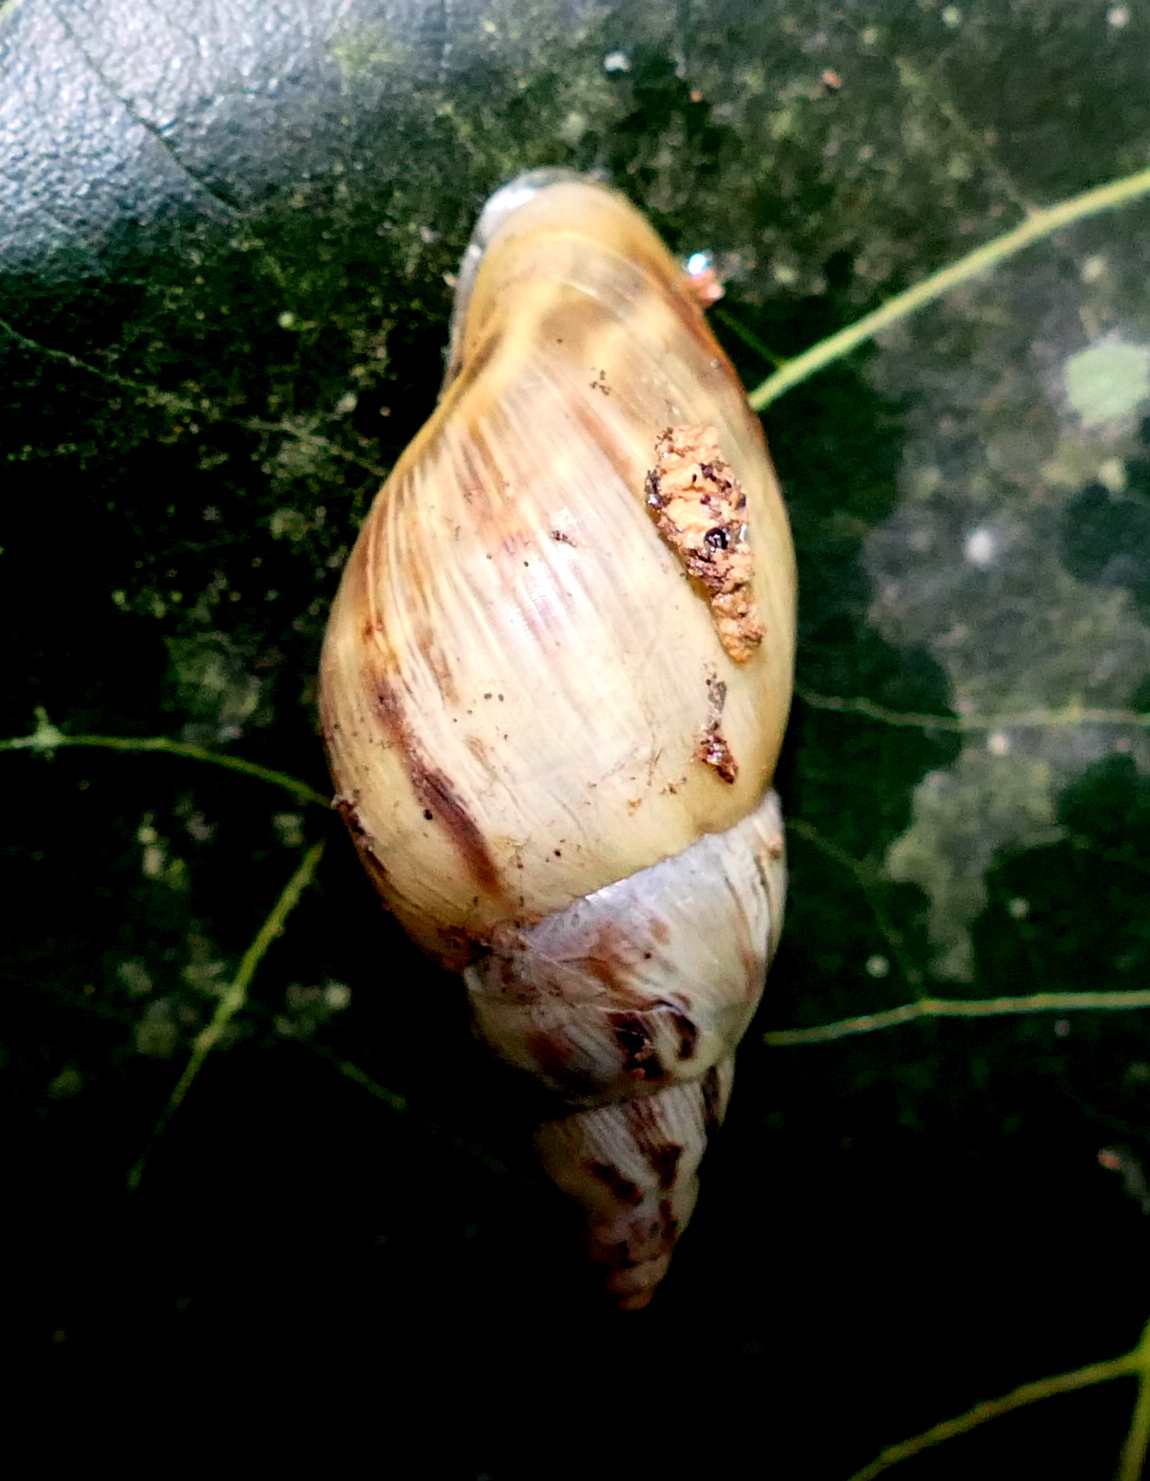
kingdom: Animalia
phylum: Mollusca
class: Gastropoda
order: Stylommatophora
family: Bulimulidae
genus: Drymaeus
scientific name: Drymaeus papyraceus
